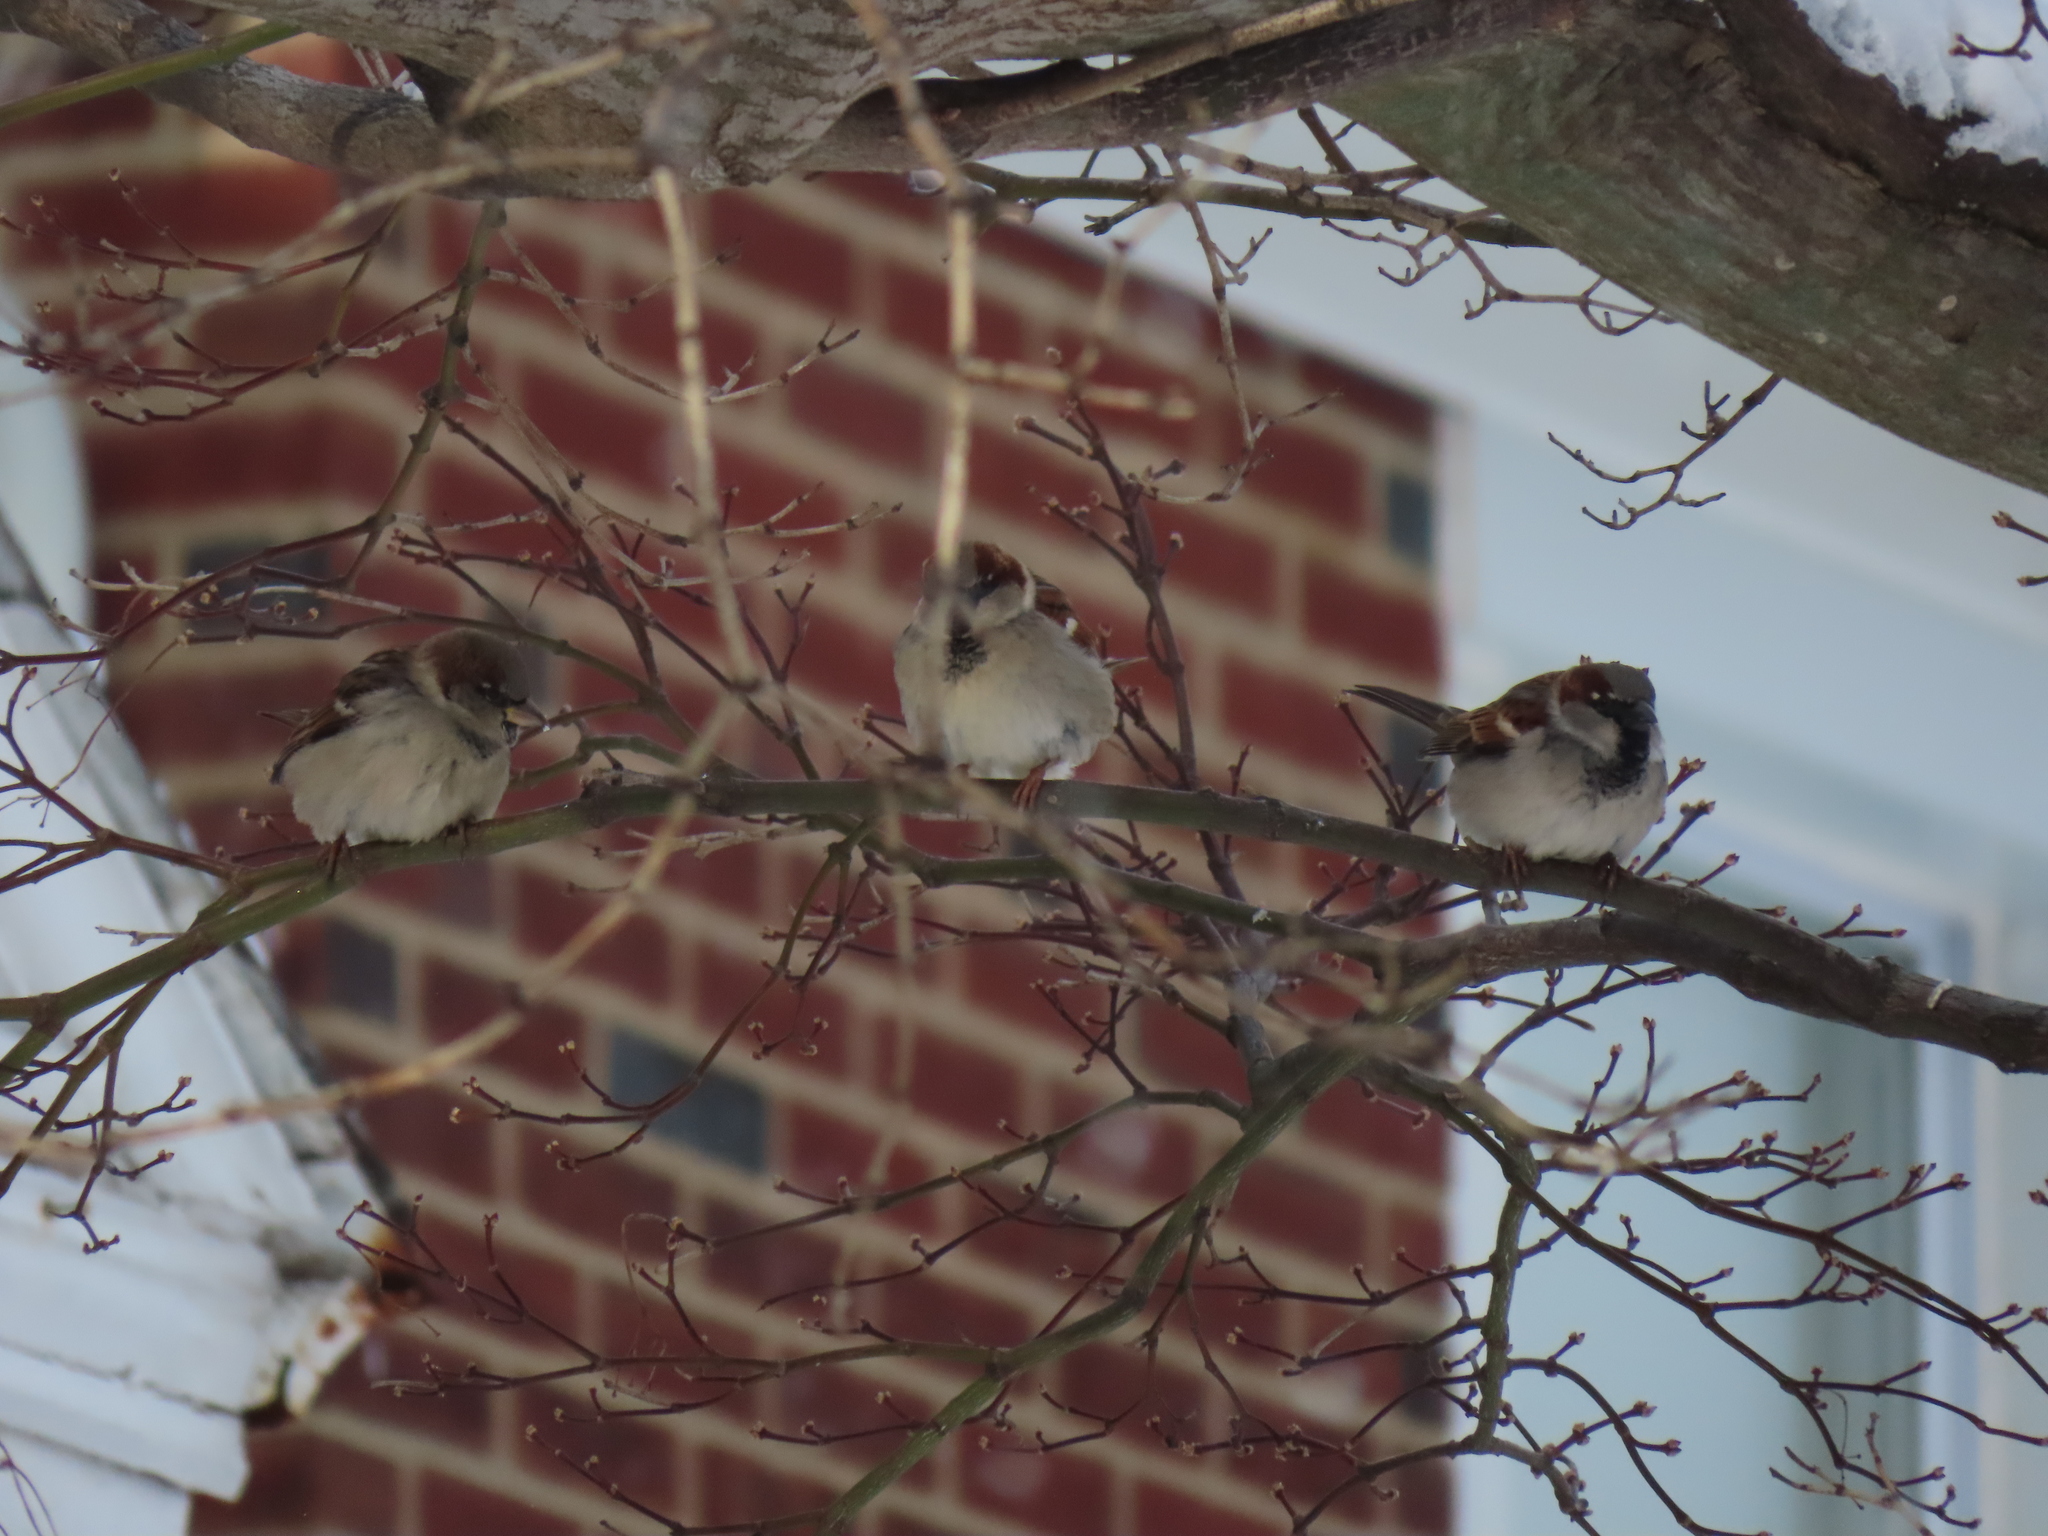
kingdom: Animalia
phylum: Chordata
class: Aves
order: Passeriformes
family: Passeridae
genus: Passer
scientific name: Passer domesticus
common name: House sparrow
